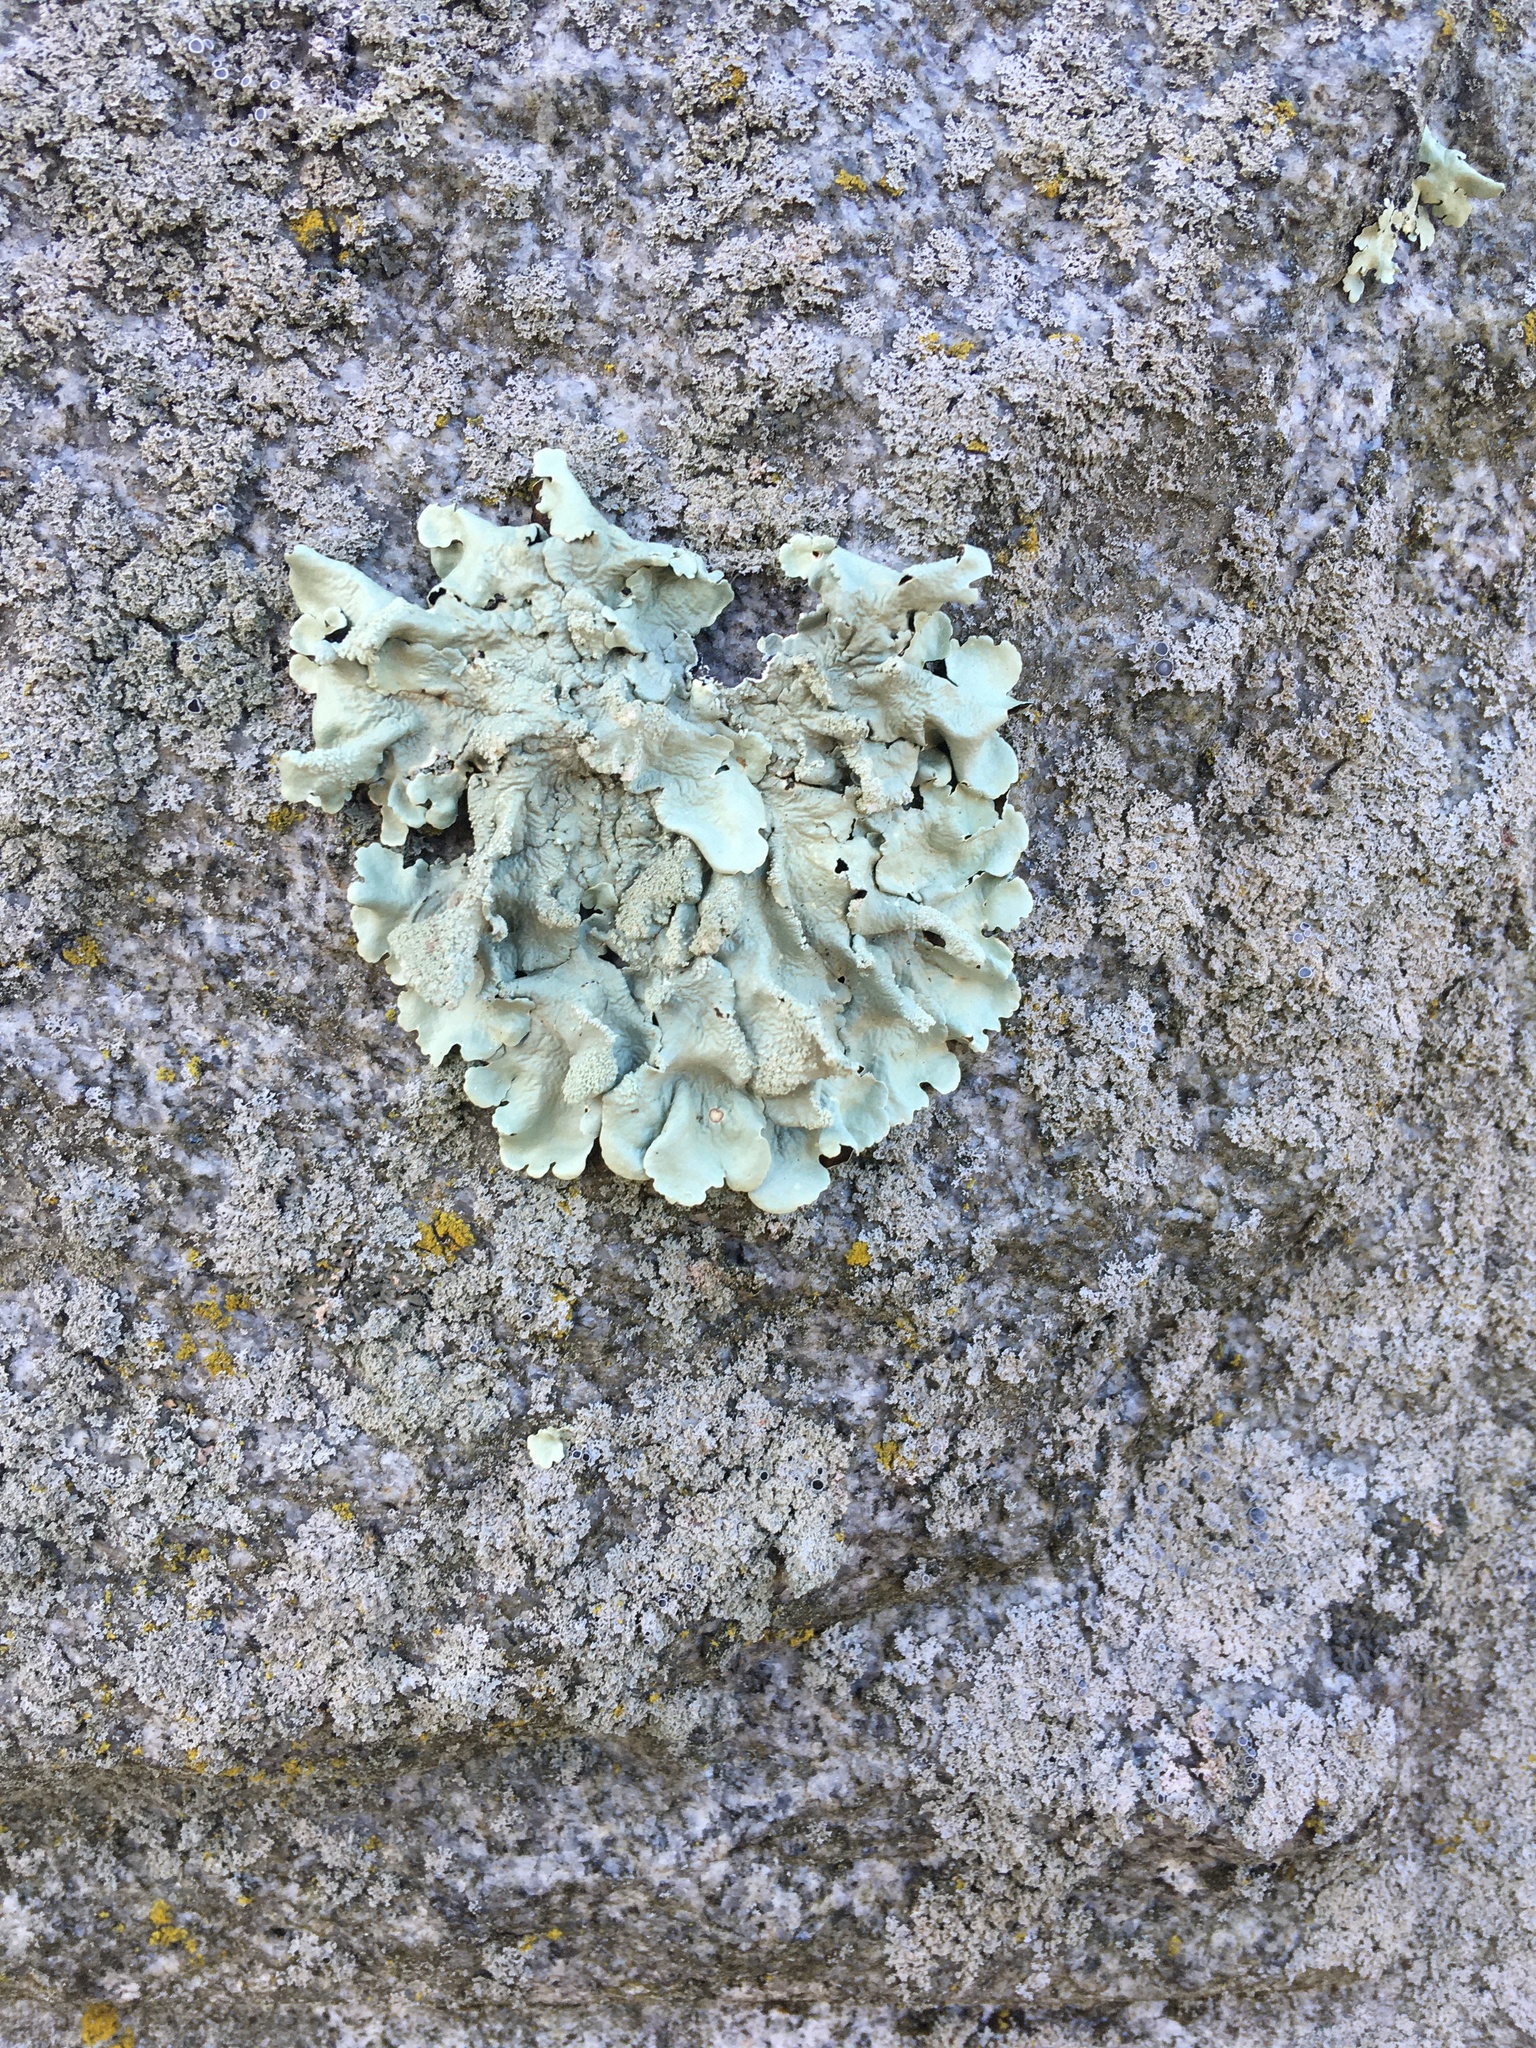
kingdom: Fungi
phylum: Ascomycota
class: Lecanoromycetes
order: Lecanorales
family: Parmeliaceae
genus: Flavoparmelia
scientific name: Flavoparmelia caperata
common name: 40-mile per hour lichen
